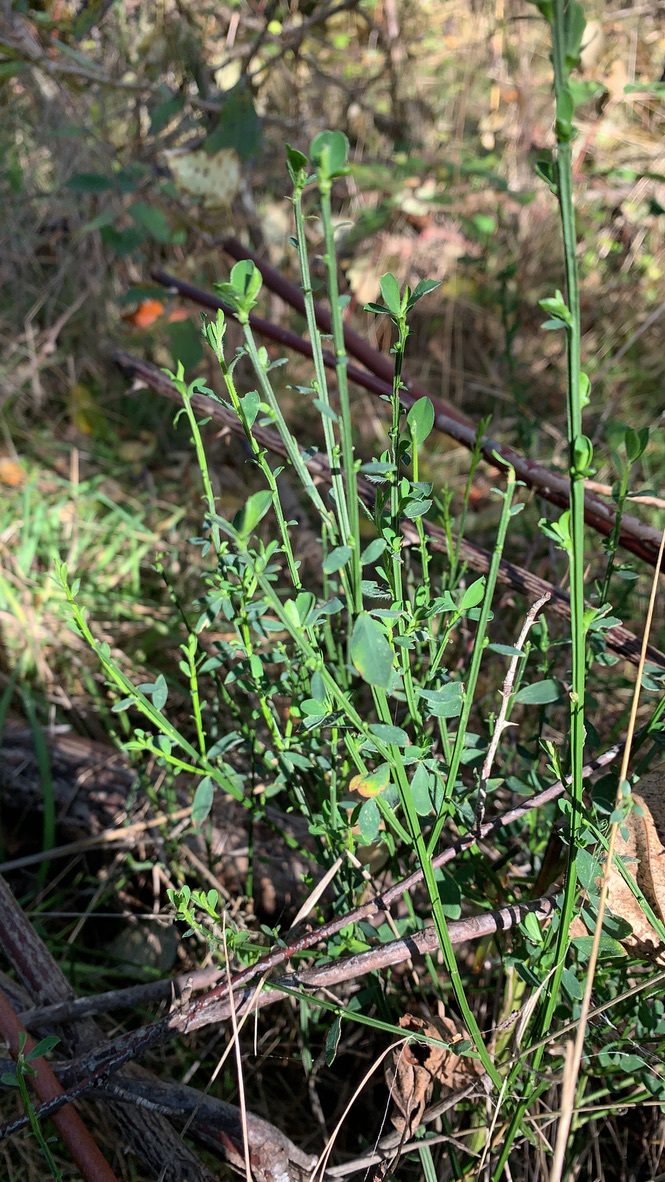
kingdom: Plantae
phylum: Tracheophyta
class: Magnoliopsida
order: Fabales
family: Fabaceae
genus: Cytisus
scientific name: Cytisus scoparius
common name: Scotch broom
